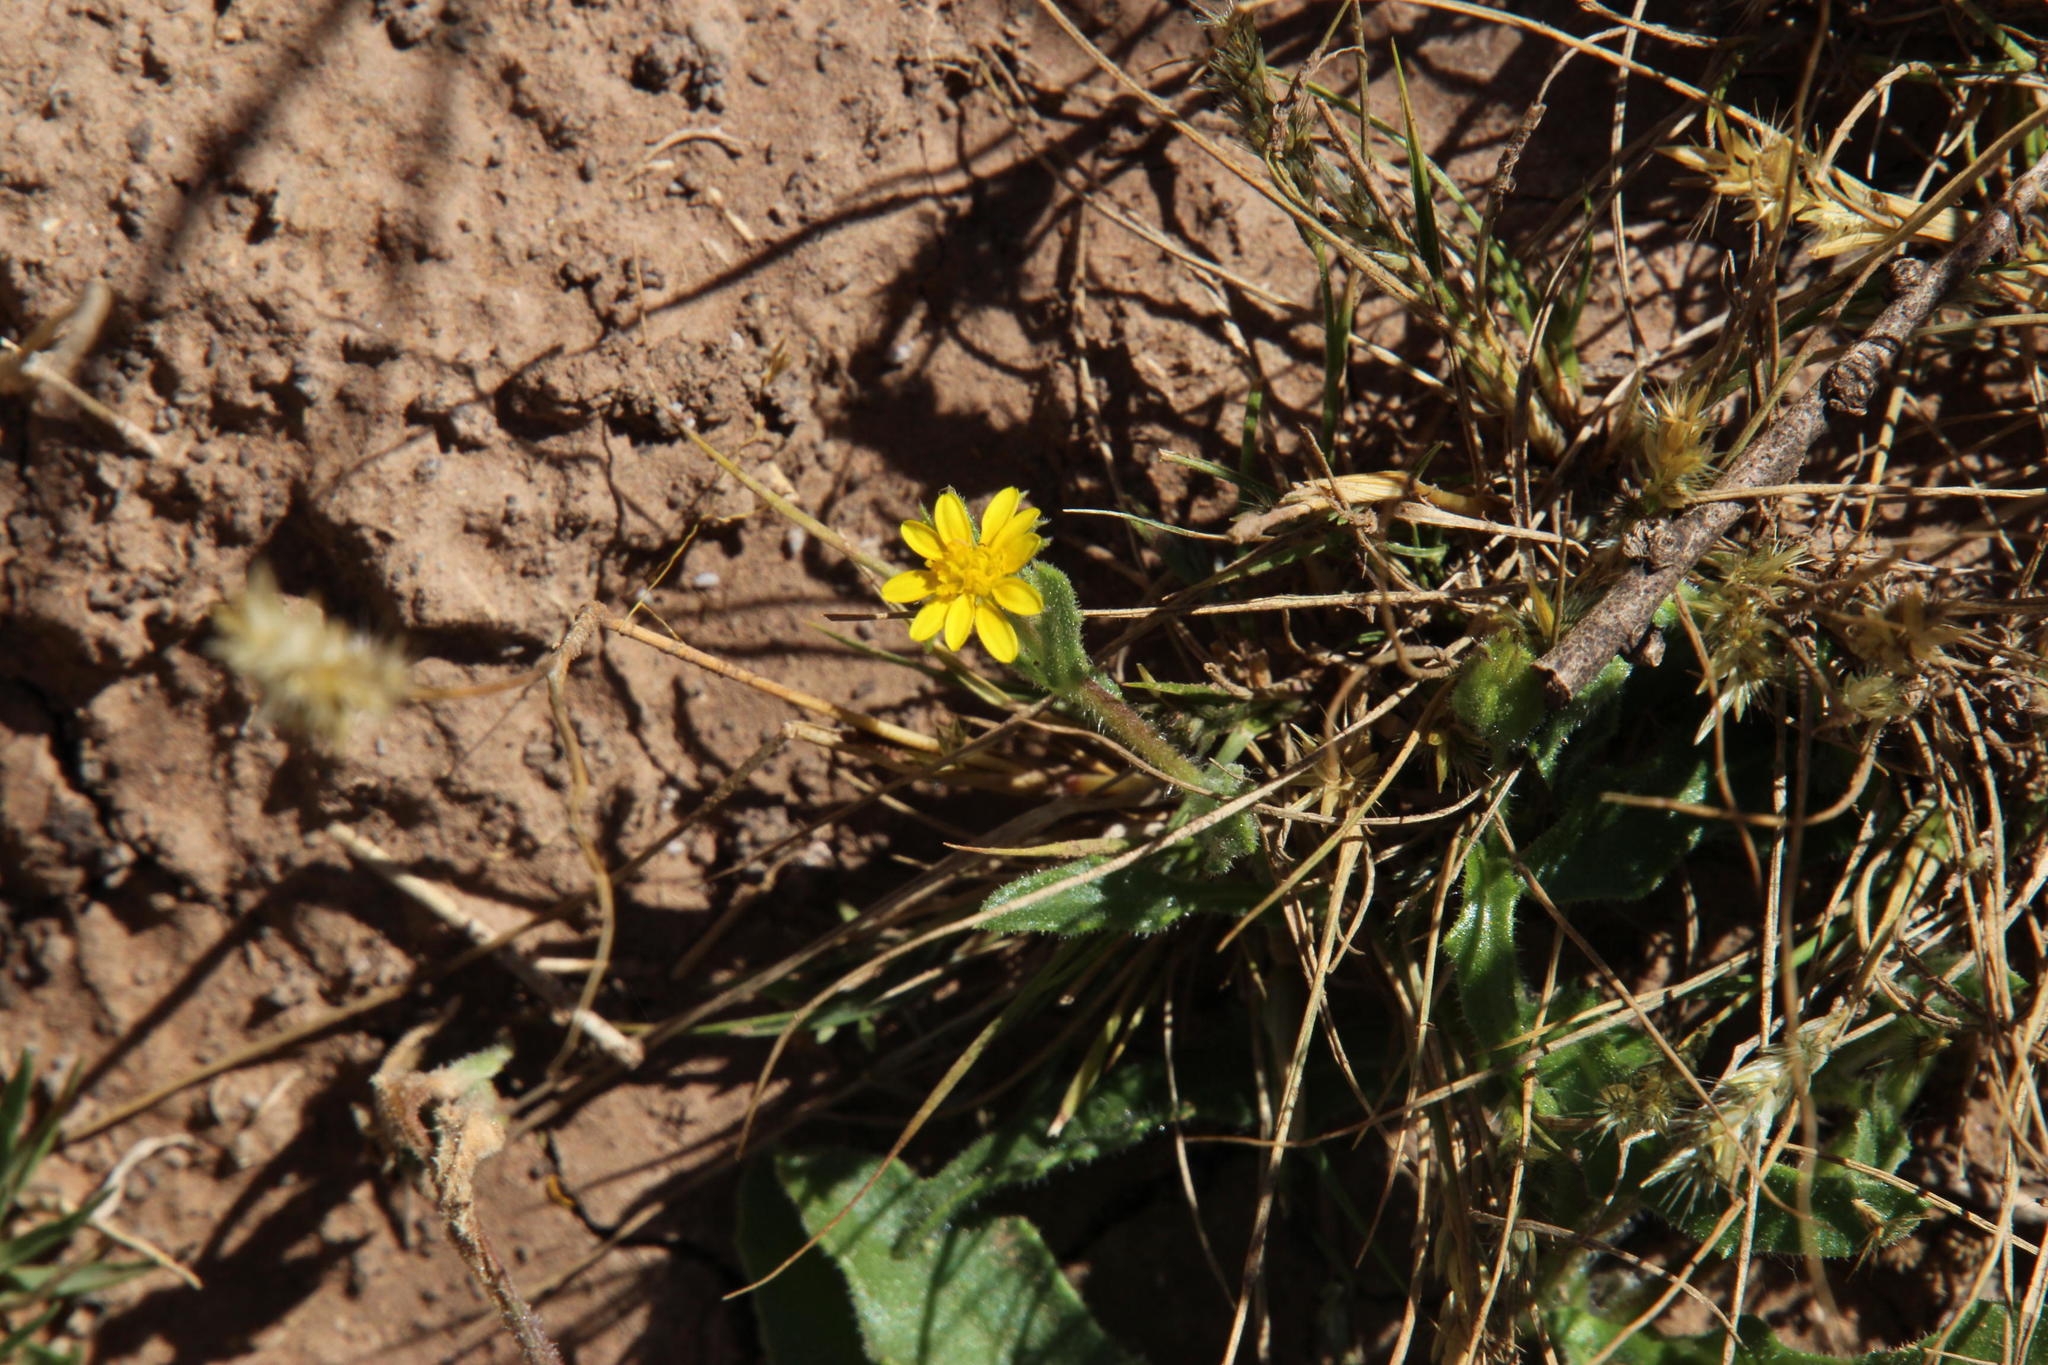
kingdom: Plantae
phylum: Tracheophyta
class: Magnoliopsida
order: Asterales
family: Asteraceae
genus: Osteospermum
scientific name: Osteospermum calendulaceum
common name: Stinking roger
